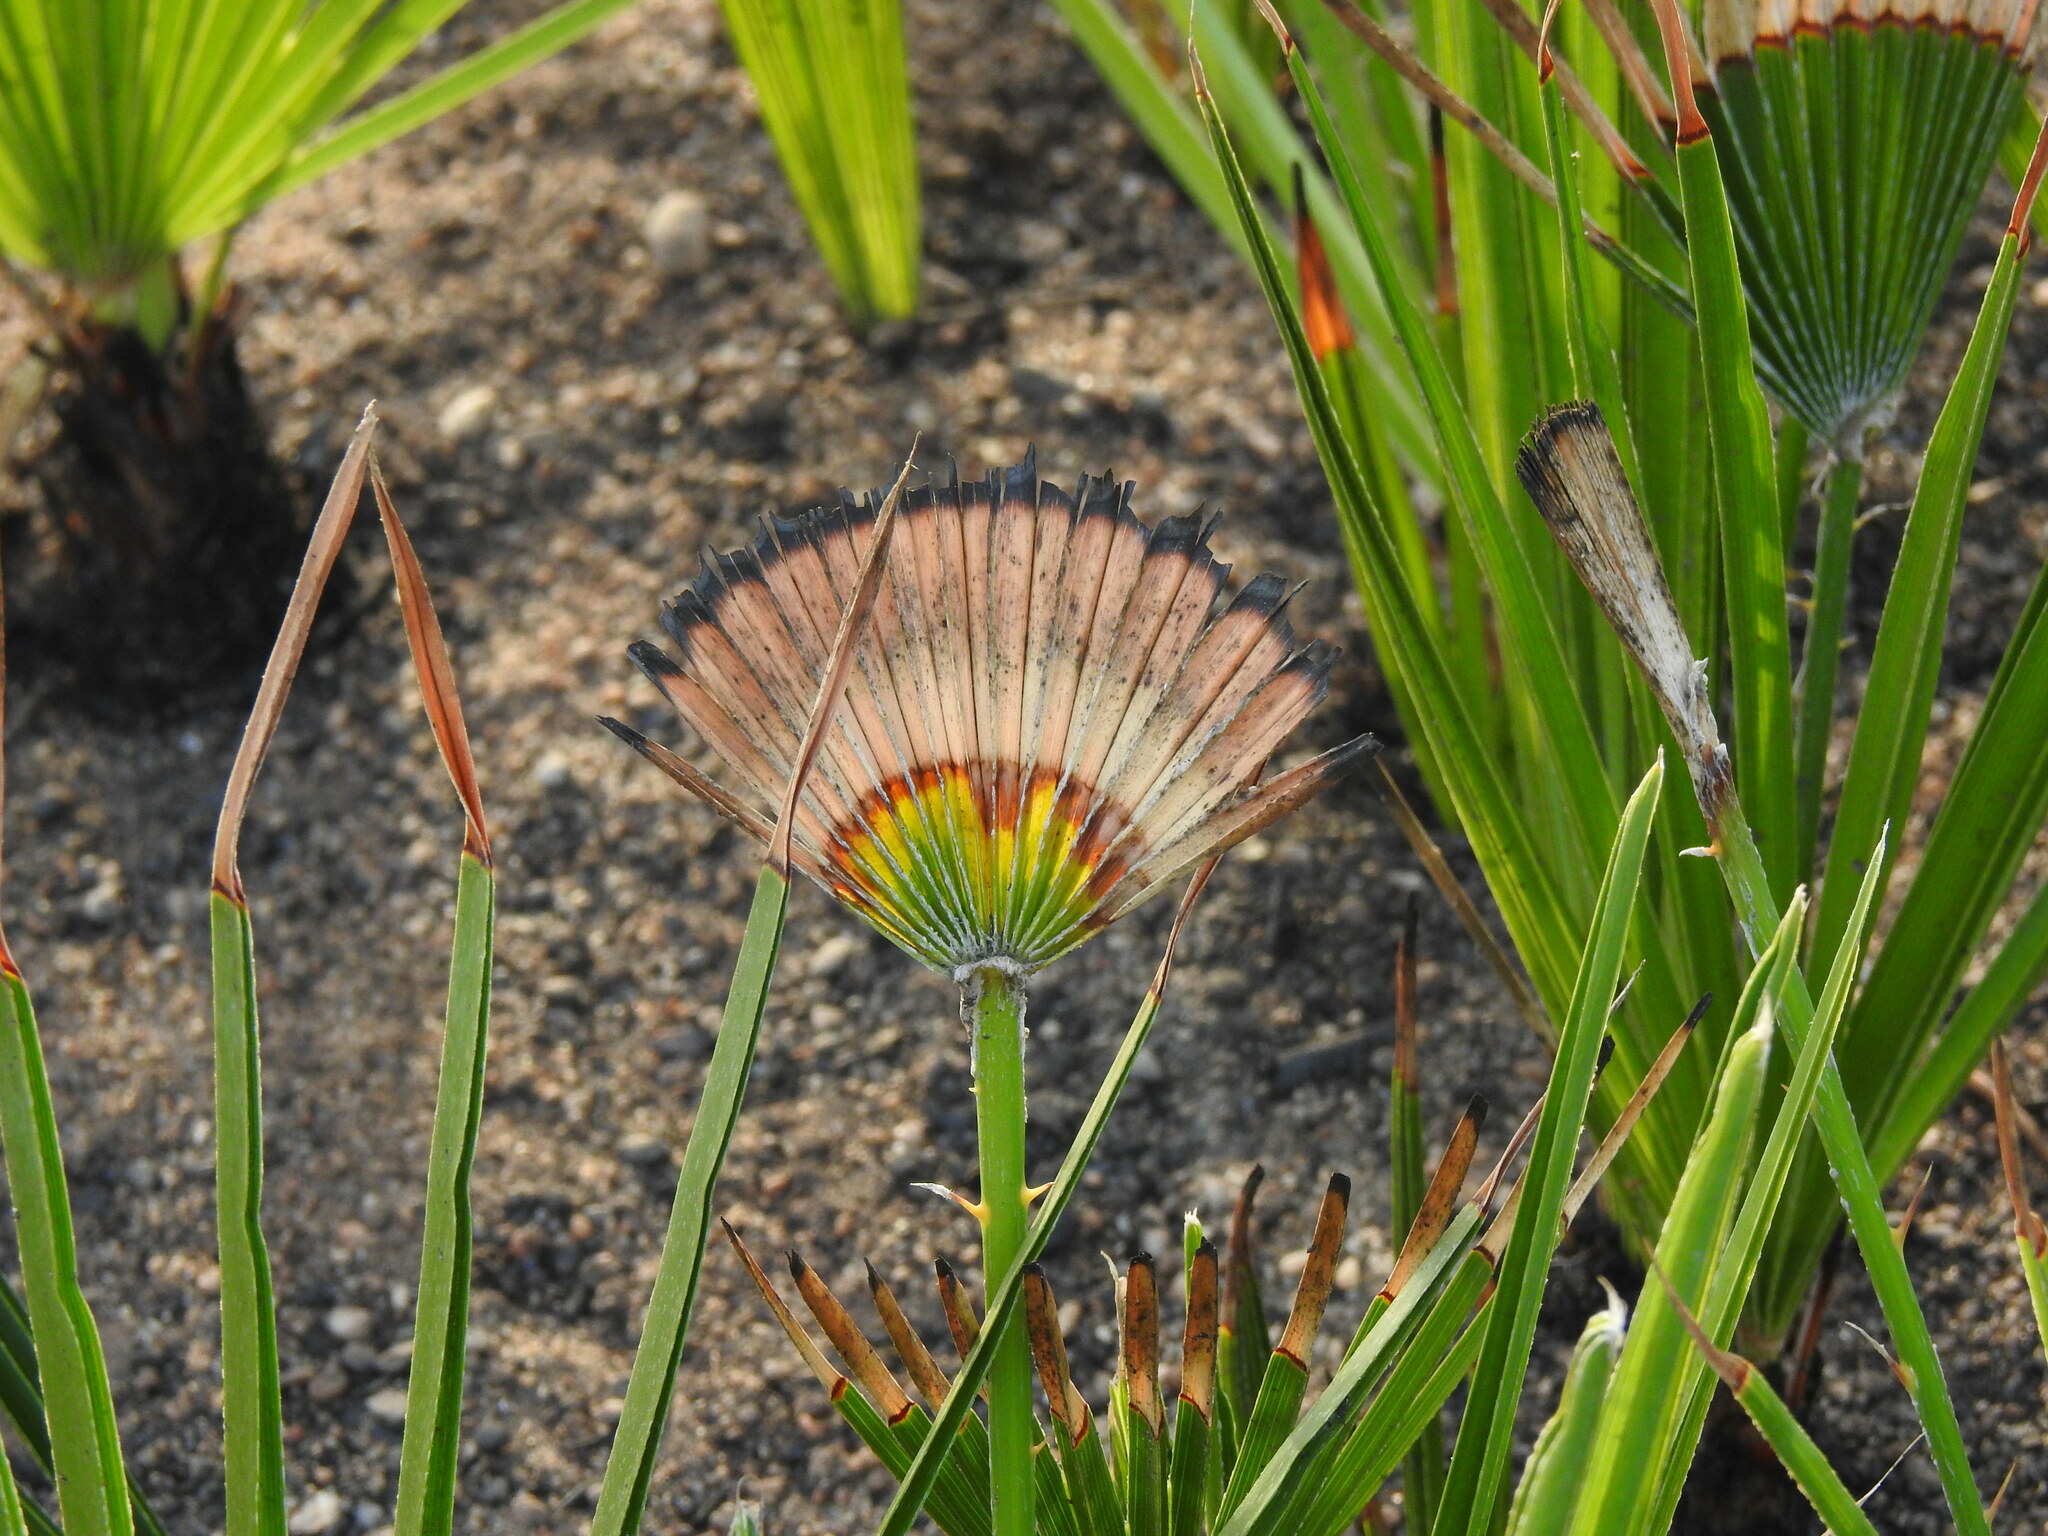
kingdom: Plantae
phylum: Tracheophyta
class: Liliopsida
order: Arecales
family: Arecaceae
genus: Chamaerops
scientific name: Chamaerops humilis
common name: Dwarf fan palm
